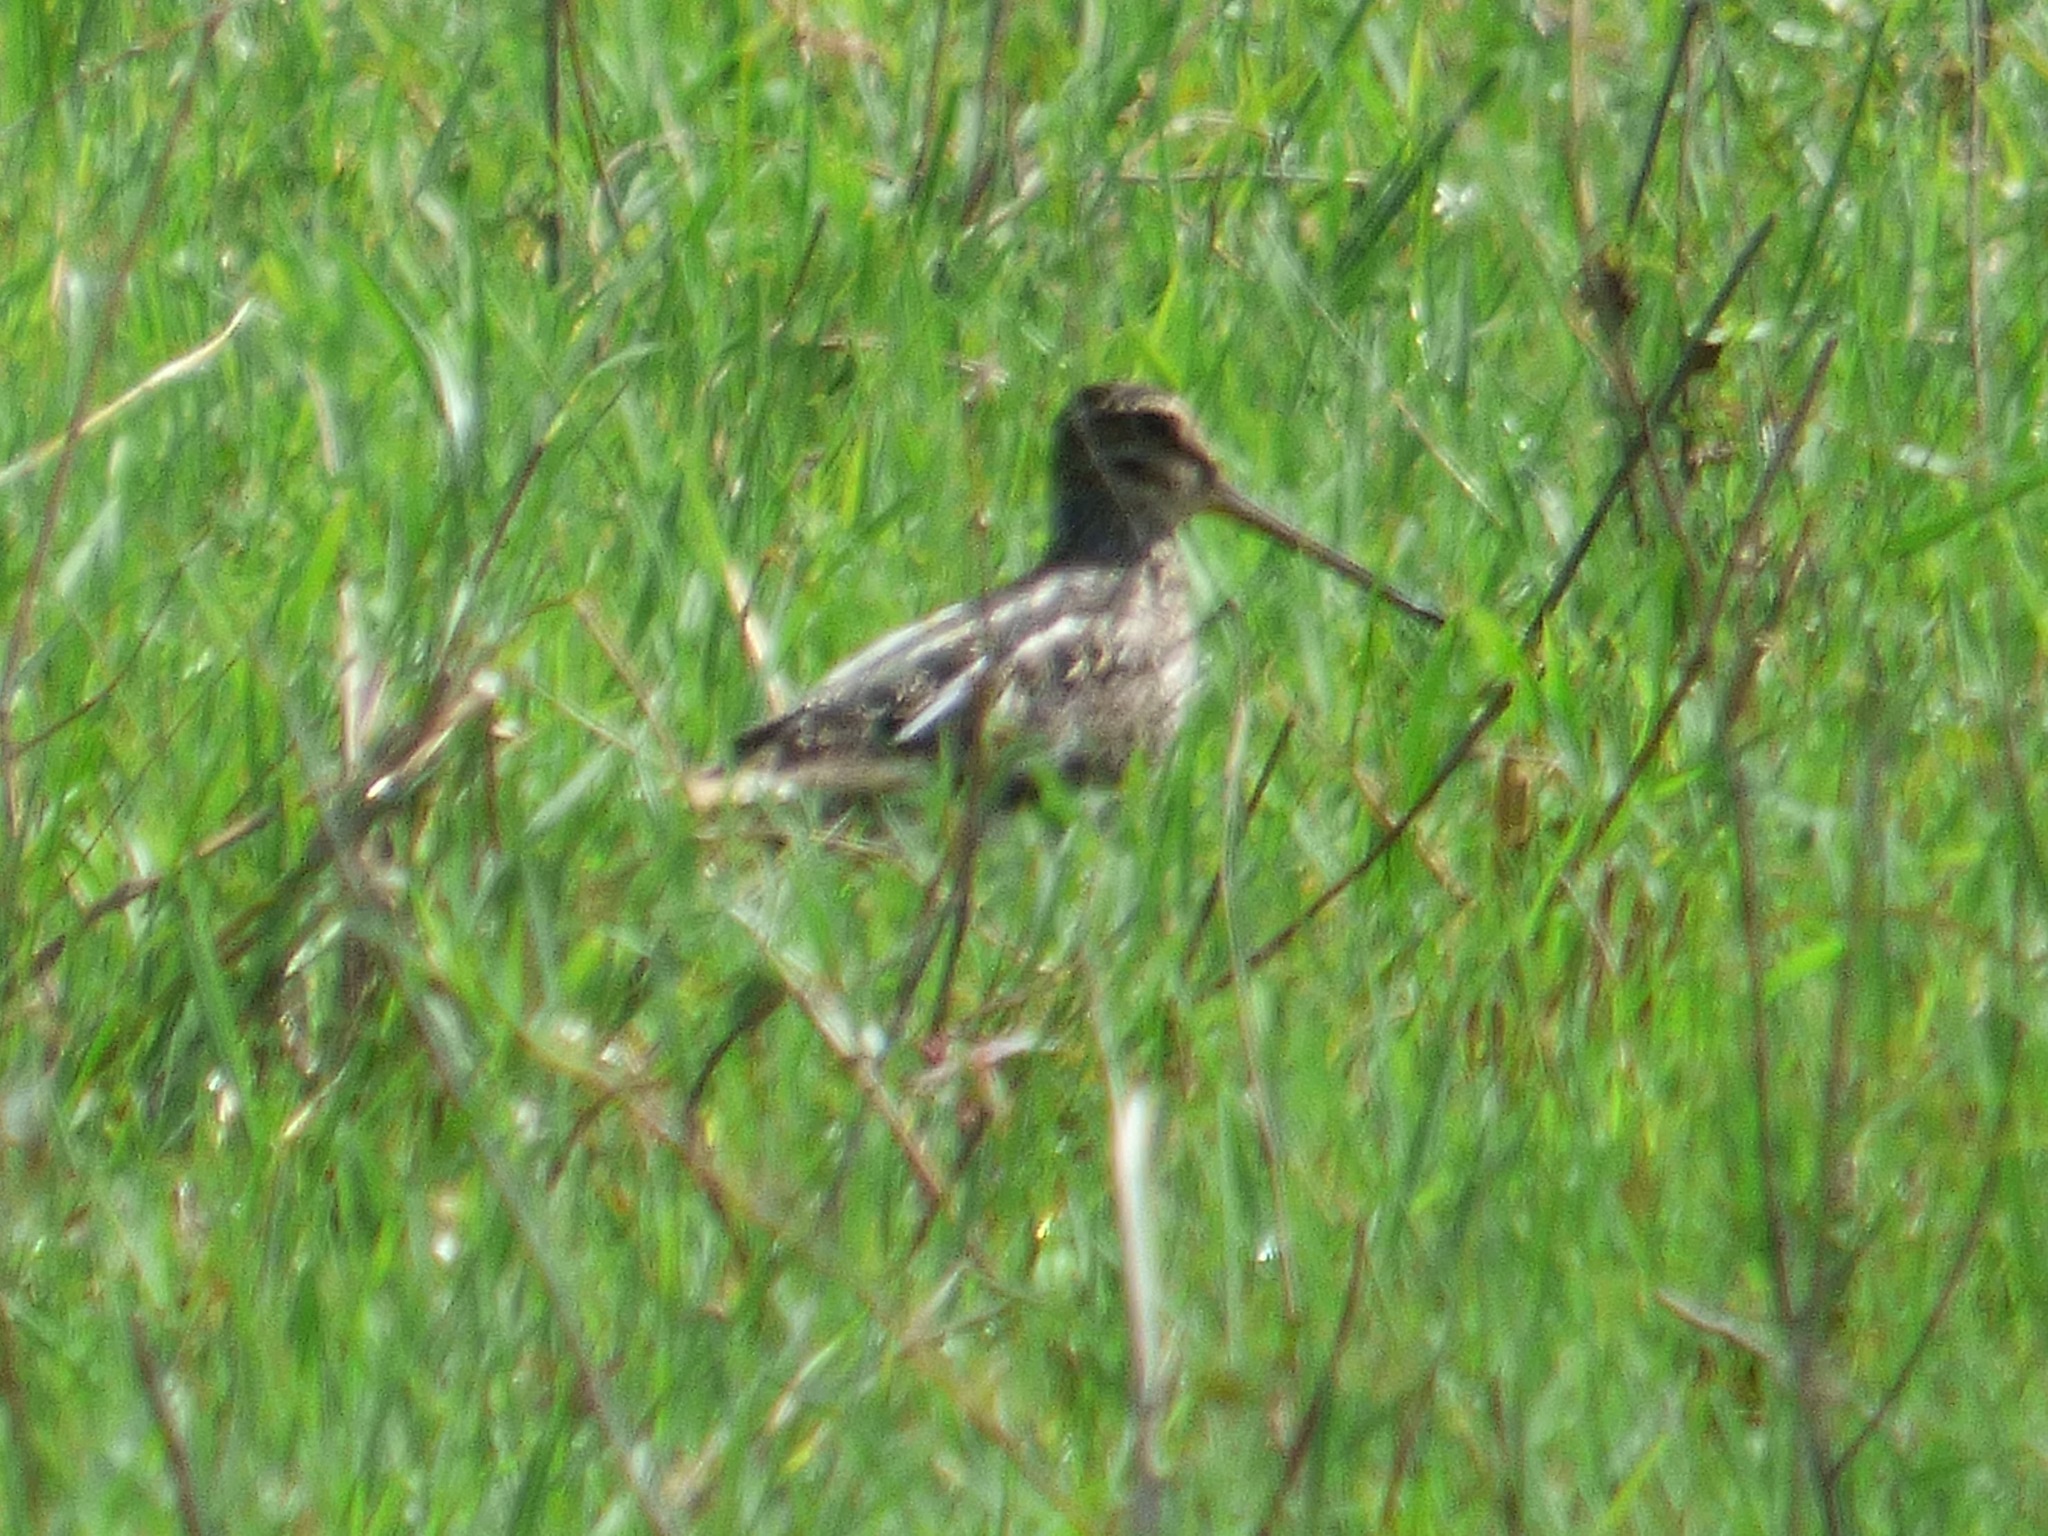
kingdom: Animalia
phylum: Chordata
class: Aves
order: Charadriiformes
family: Scolopacidae
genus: Gallinago
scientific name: Gallinago paraguaiae
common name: South american snipe
